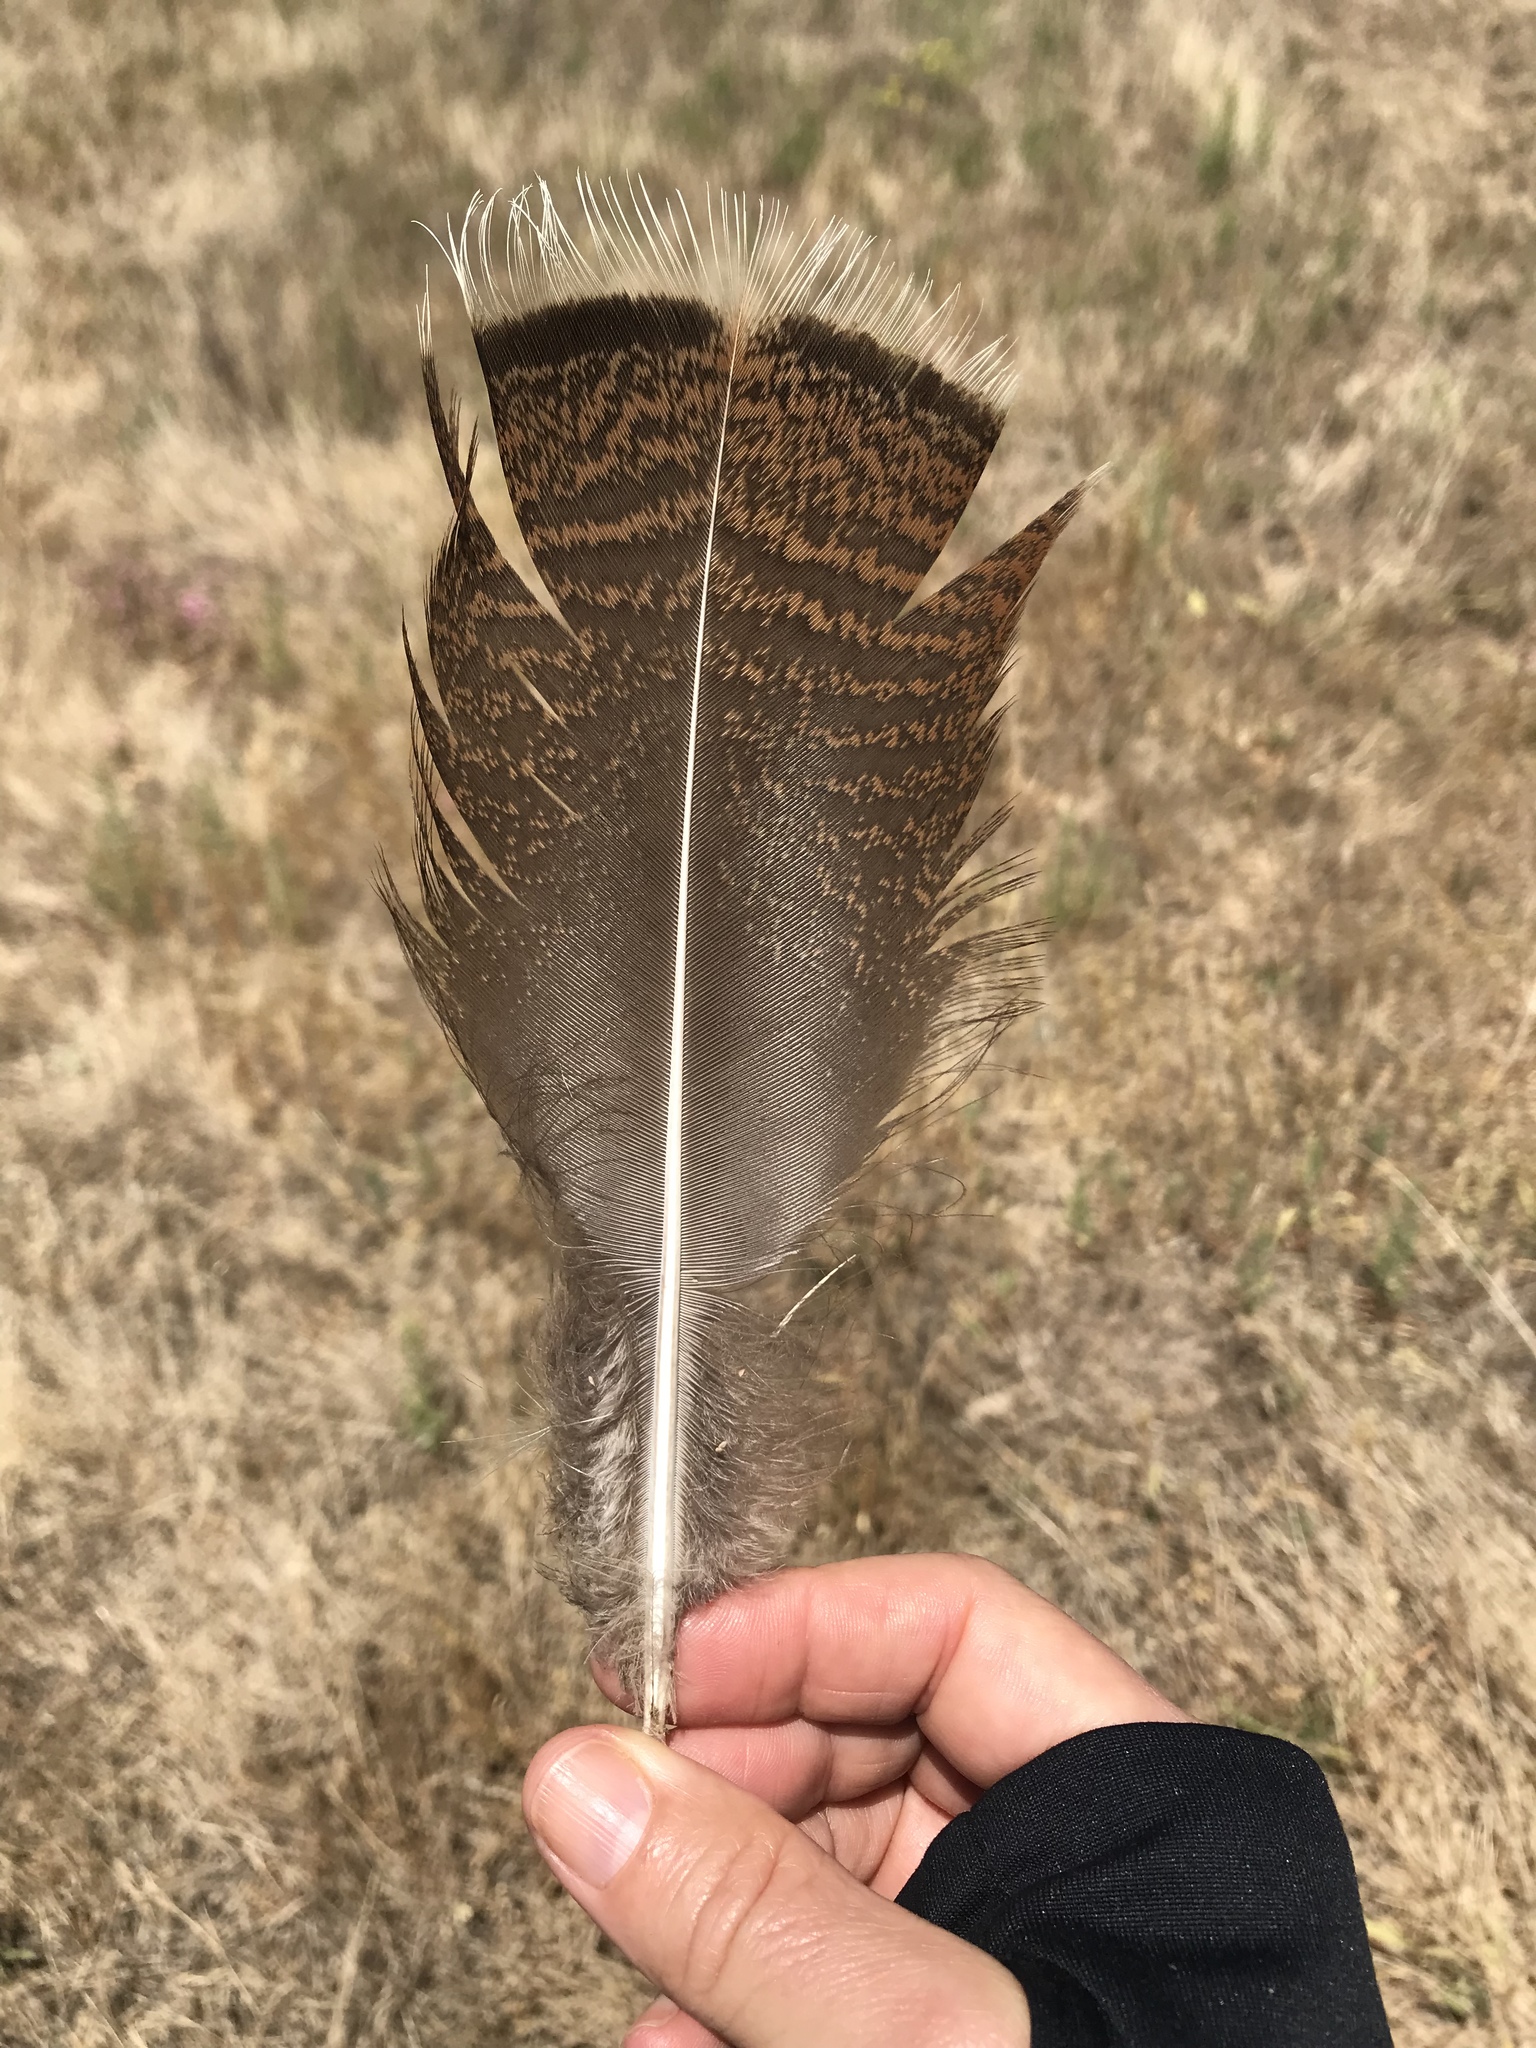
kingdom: Animalia
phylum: Chordata
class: Aves
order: Galliformes
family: Phasianidae
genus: Meleagris
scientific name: Meleagris gallopavo
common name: Wild turkey
